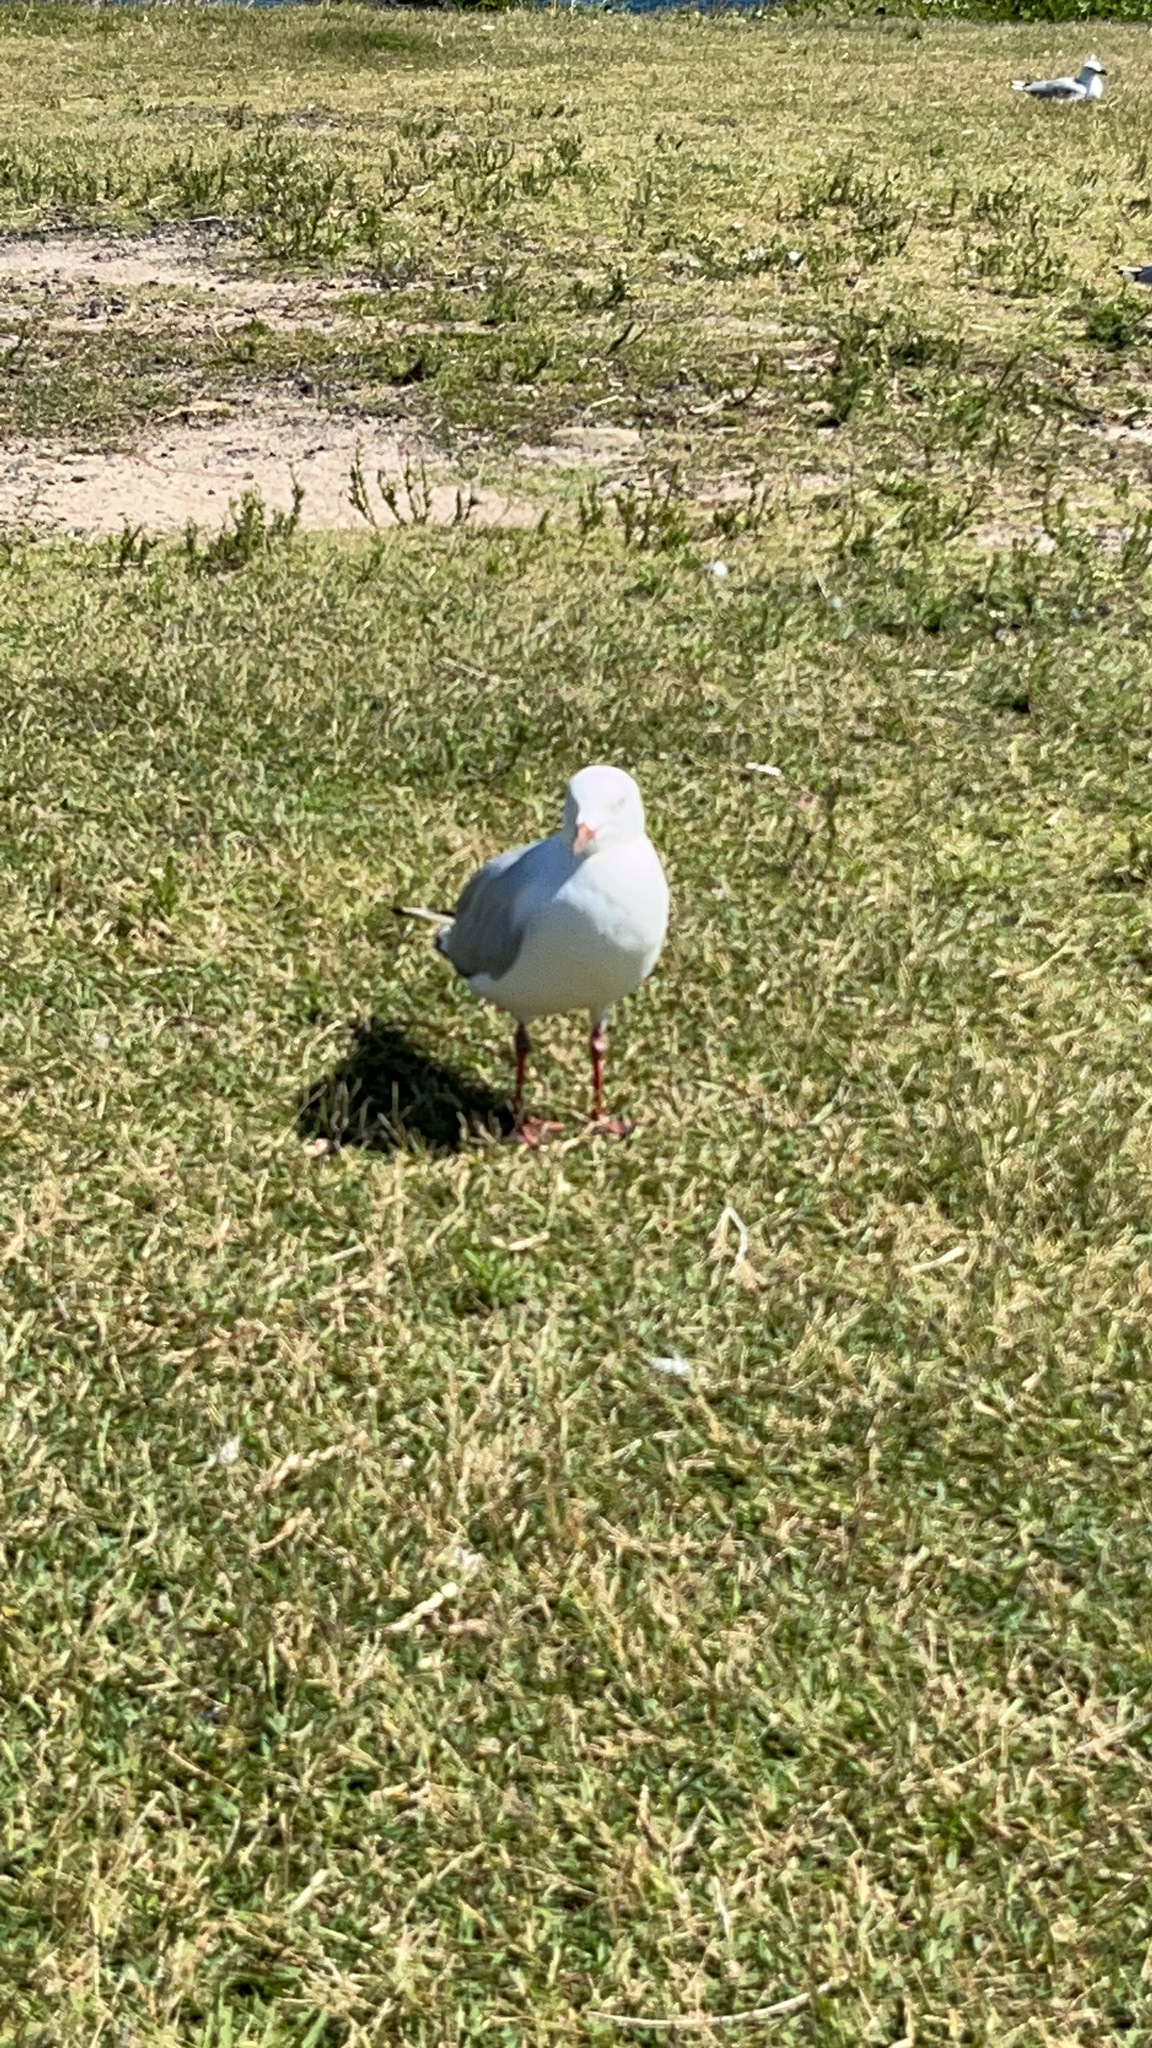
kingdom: Animalia
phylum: Chordata
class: Aves
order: Charadriiformes
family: Laridae
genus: Chroicocephalus
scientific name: Chroicocephalus novaehollandiae
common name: Silver gull
